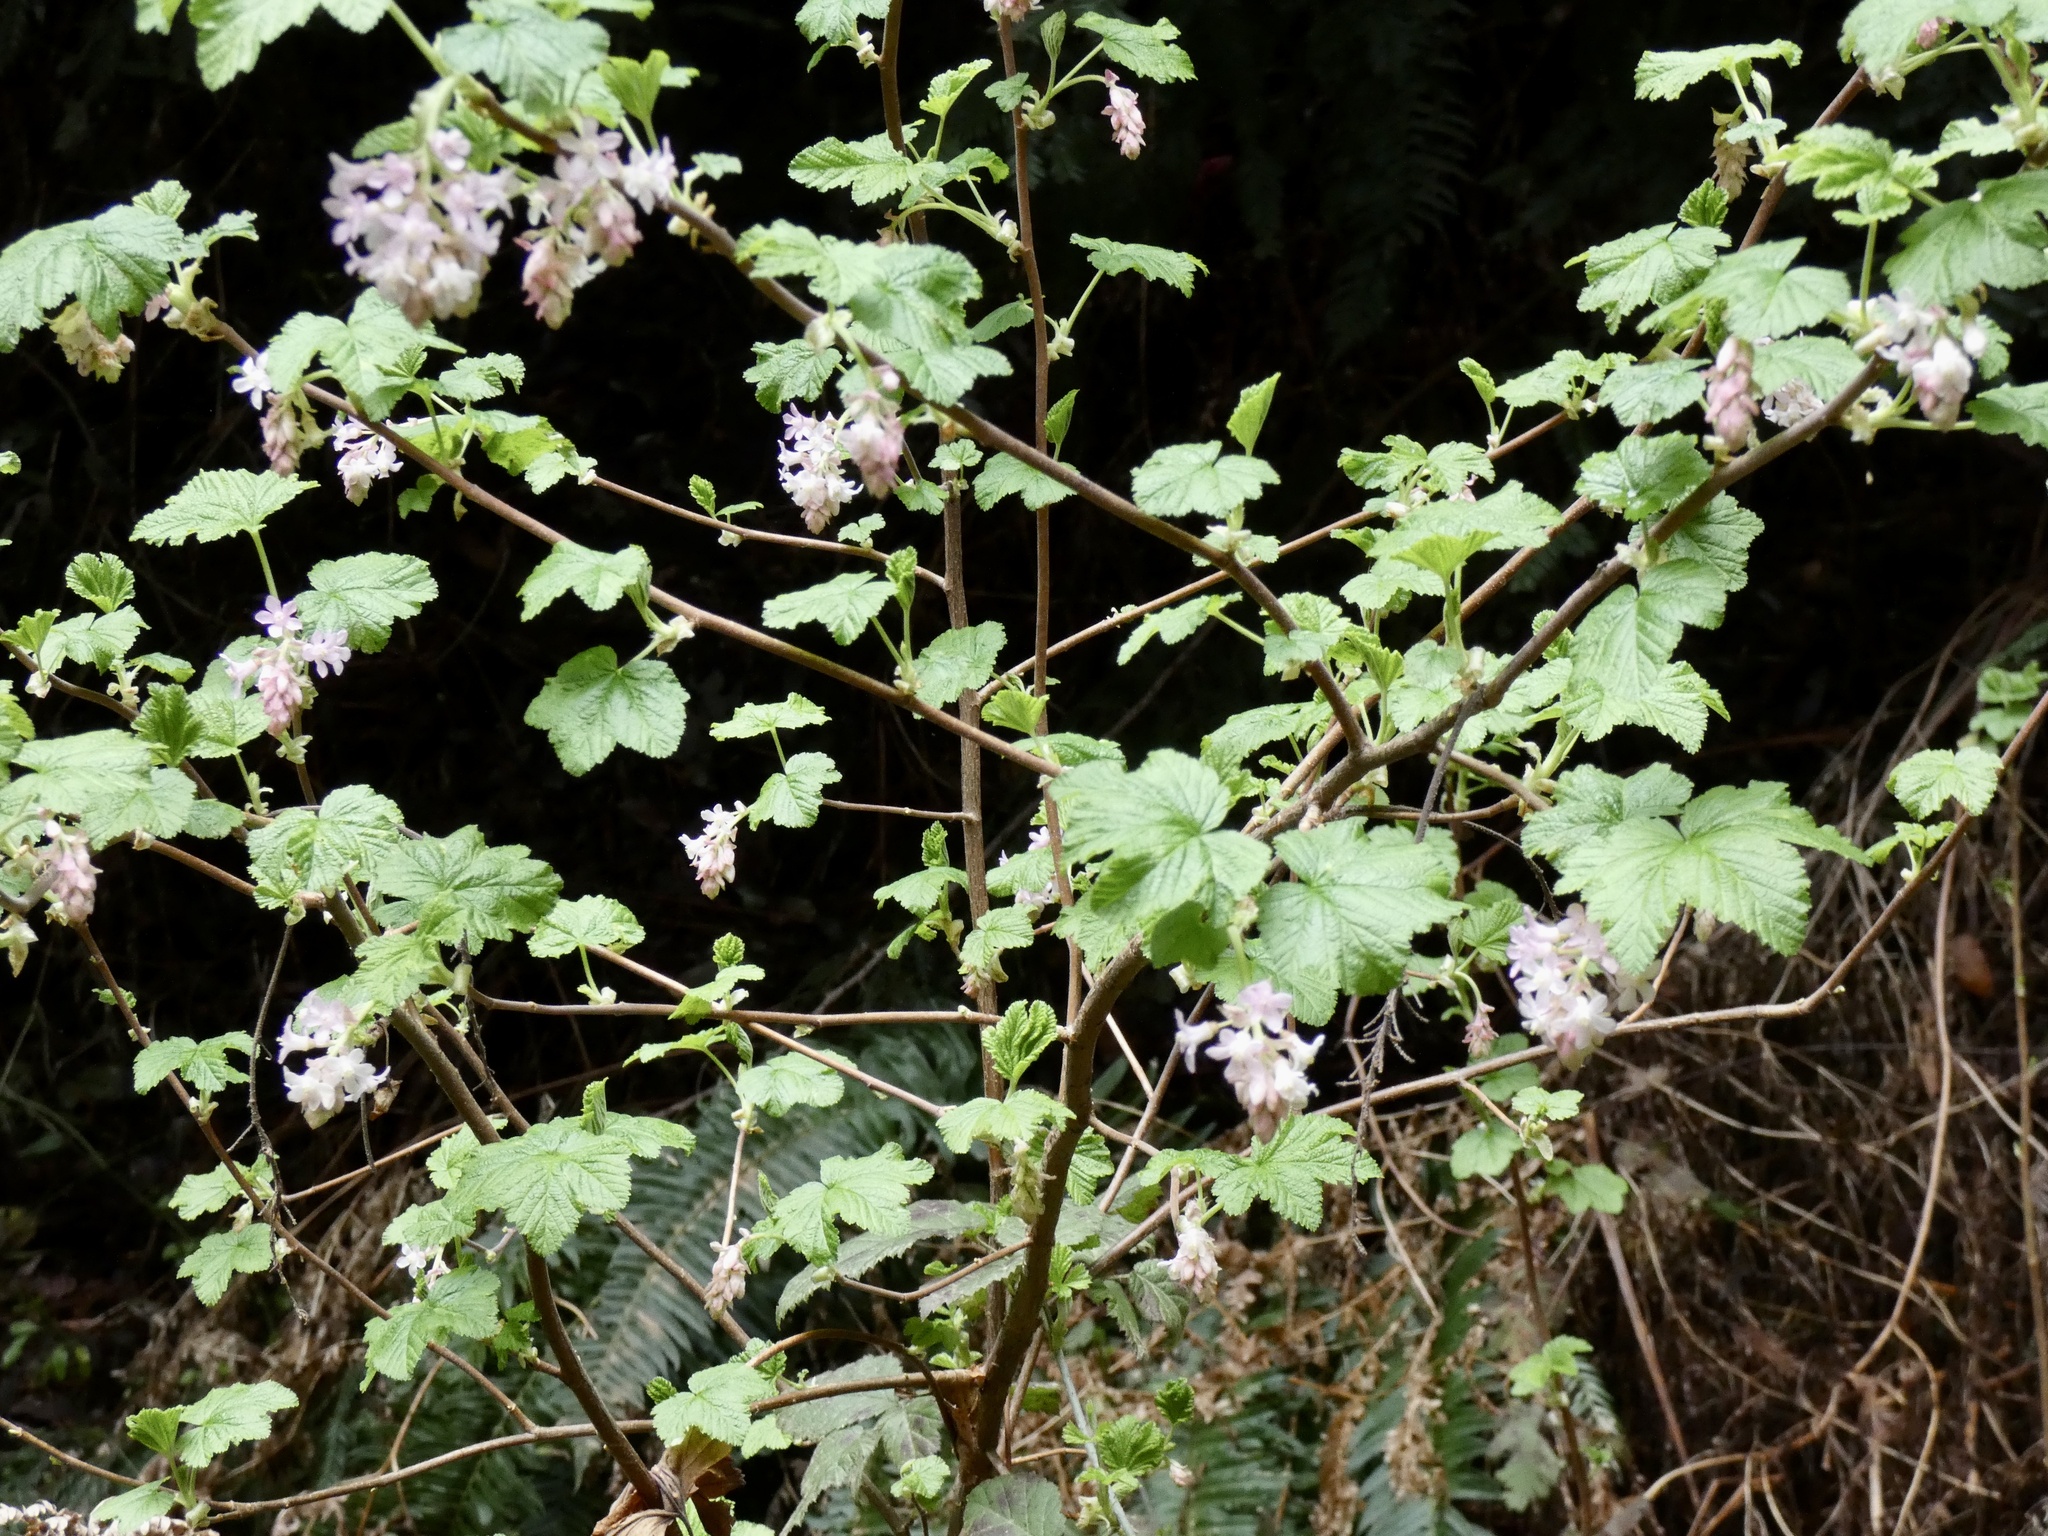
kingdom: Plantae
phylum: Tracheophyta
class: Magnoliopsida
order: Saxifragales
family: Grossulariaceae
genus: Ribes
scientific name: Ribes sanguineum
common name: Flowering currant
